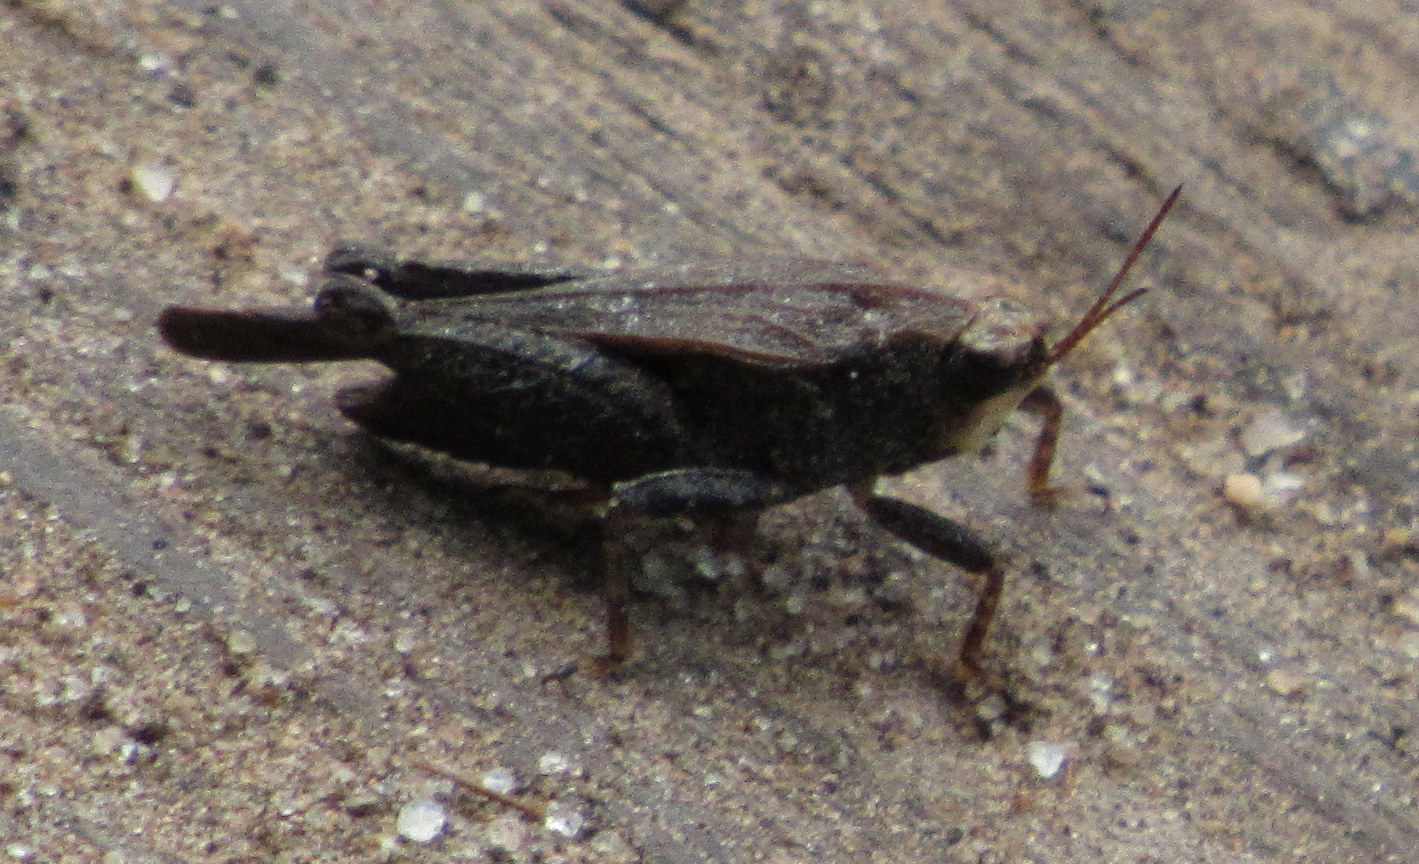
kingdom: Animalia
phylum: Arthropoda
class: Insecta
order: Orthoptera
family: Tetrigidae
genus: Tettigidea
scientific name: Tettigidea laterale
